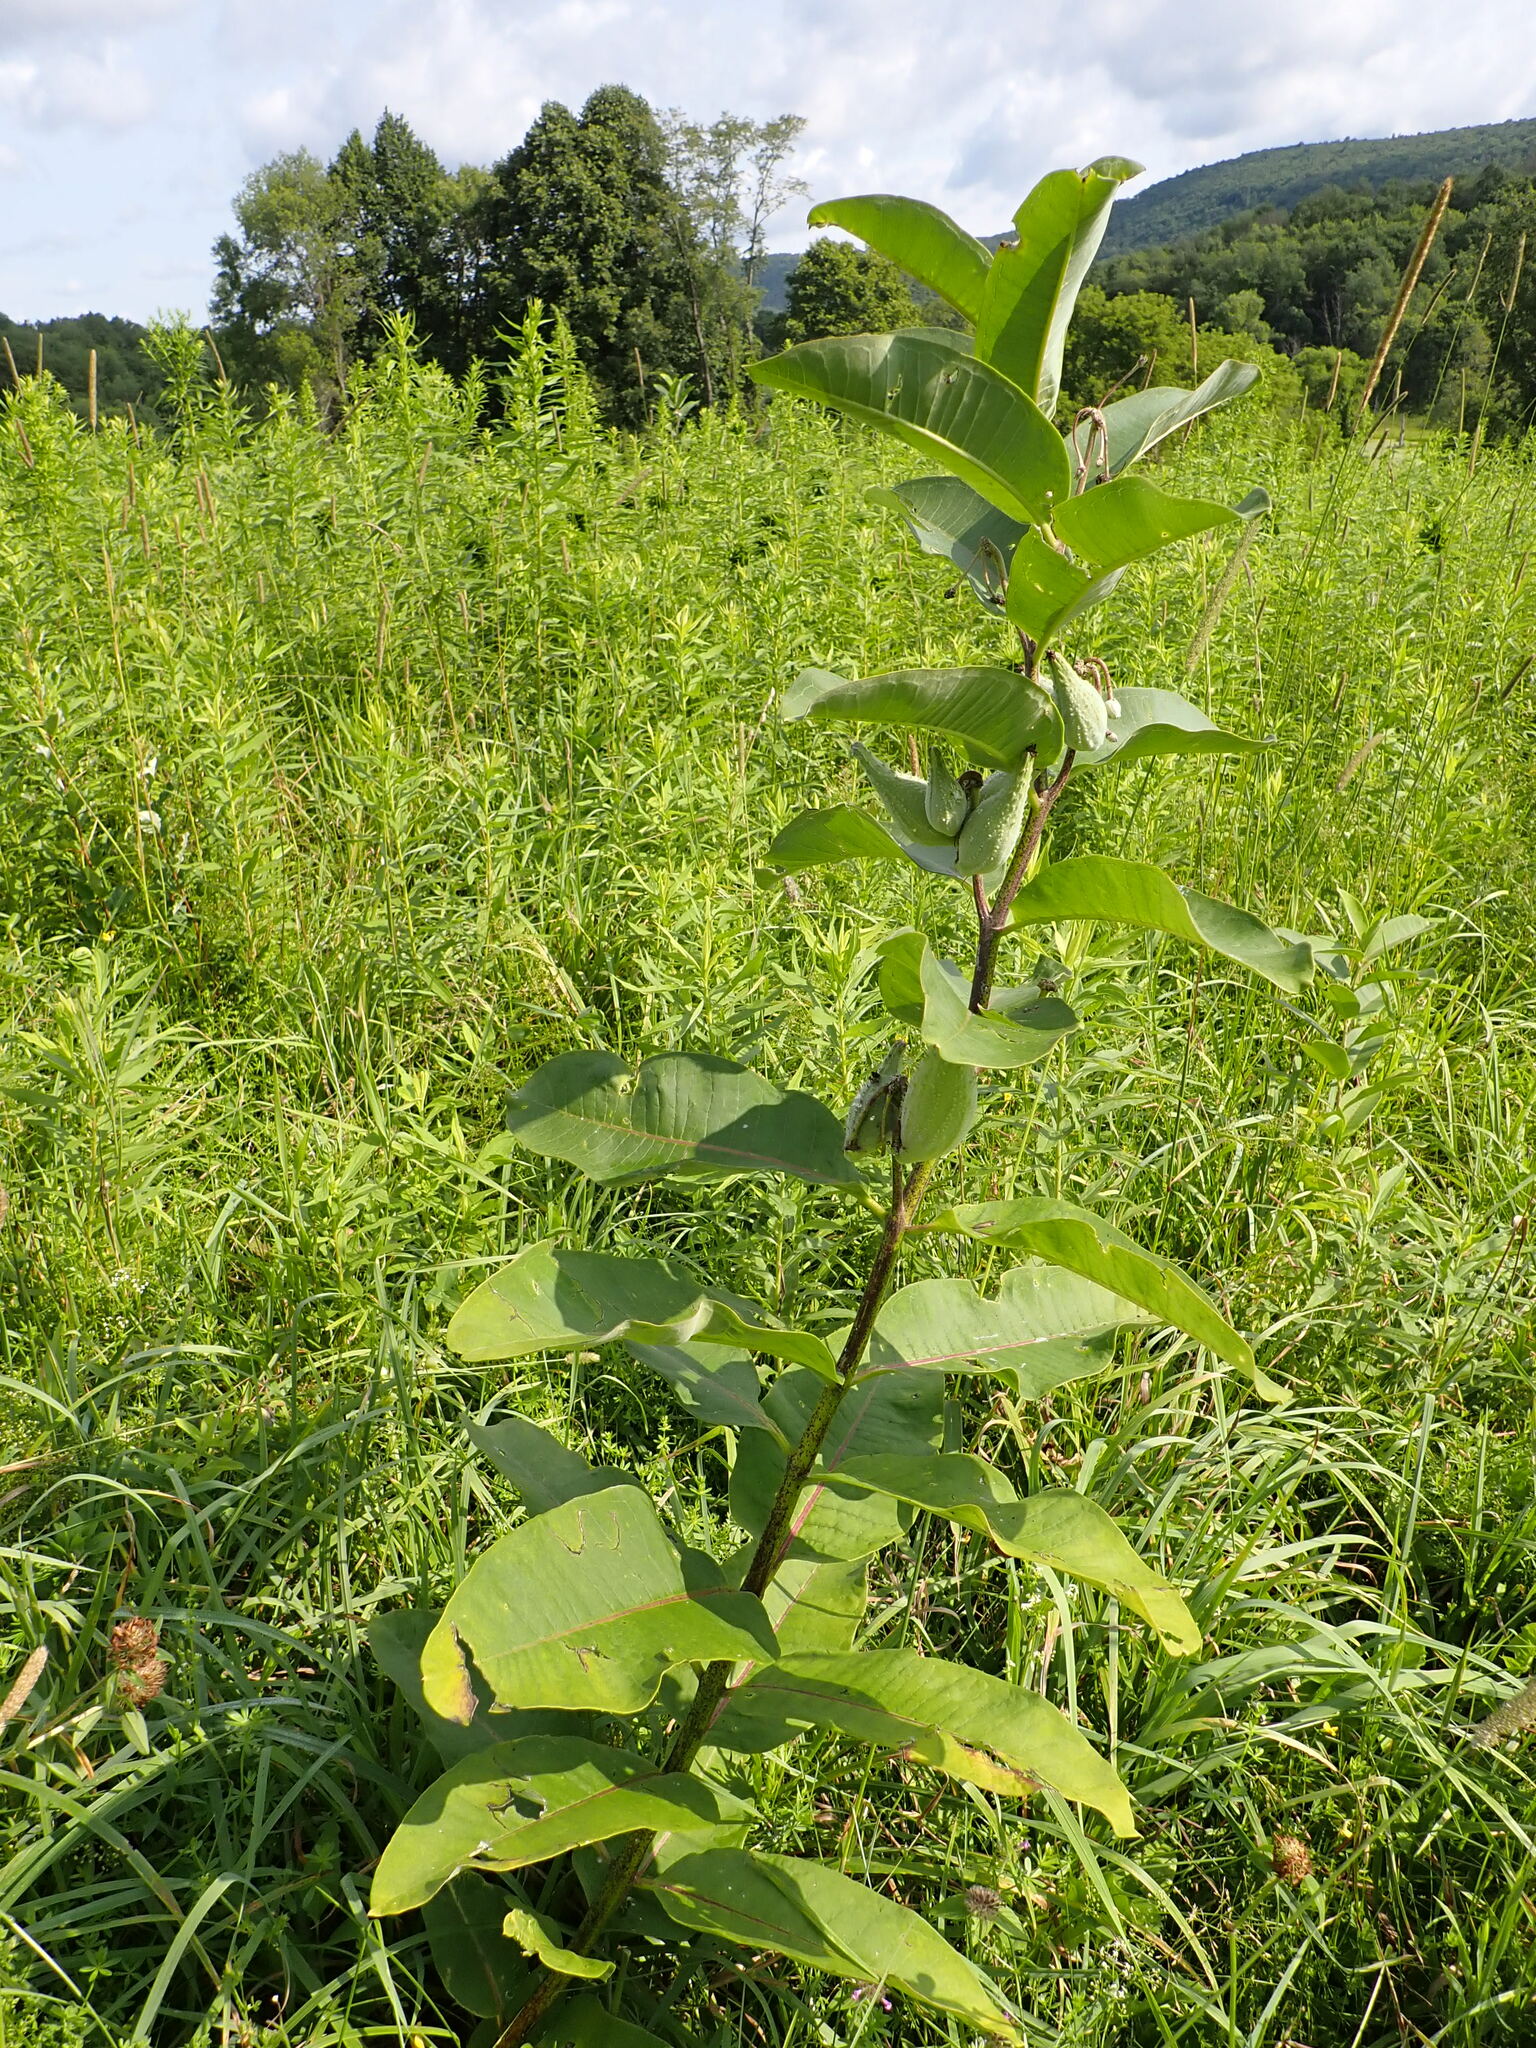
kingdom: Plantae
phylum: Tracheophyta
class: Magnoliopsida
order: Gentianales
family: Apocynaceae
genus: Asclepias
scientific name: Asclepias syriaca
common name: Common milkweed
